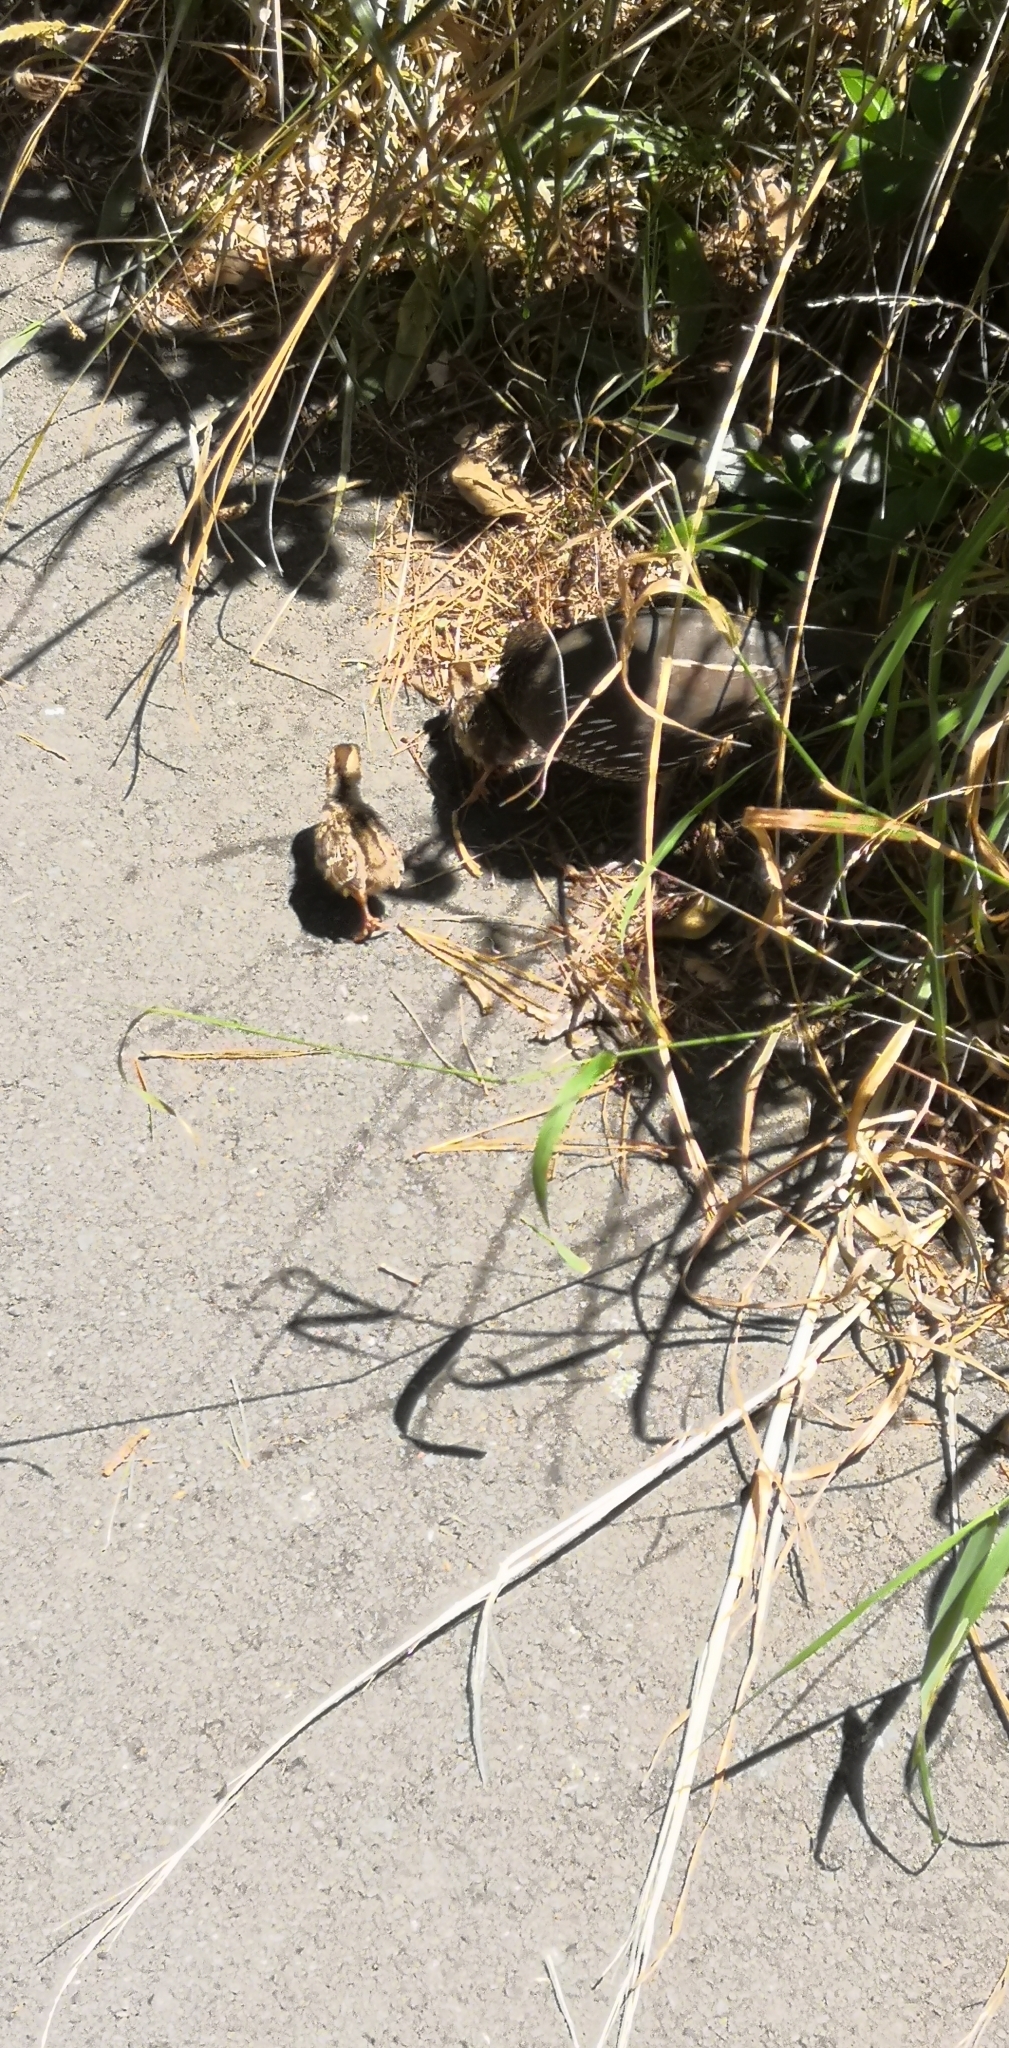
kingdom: Animalia
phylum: Chordata
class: Aves
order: Galliformes
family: Odontophoridae
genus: Callipepla
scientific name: Callipepla californica
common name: California quail
